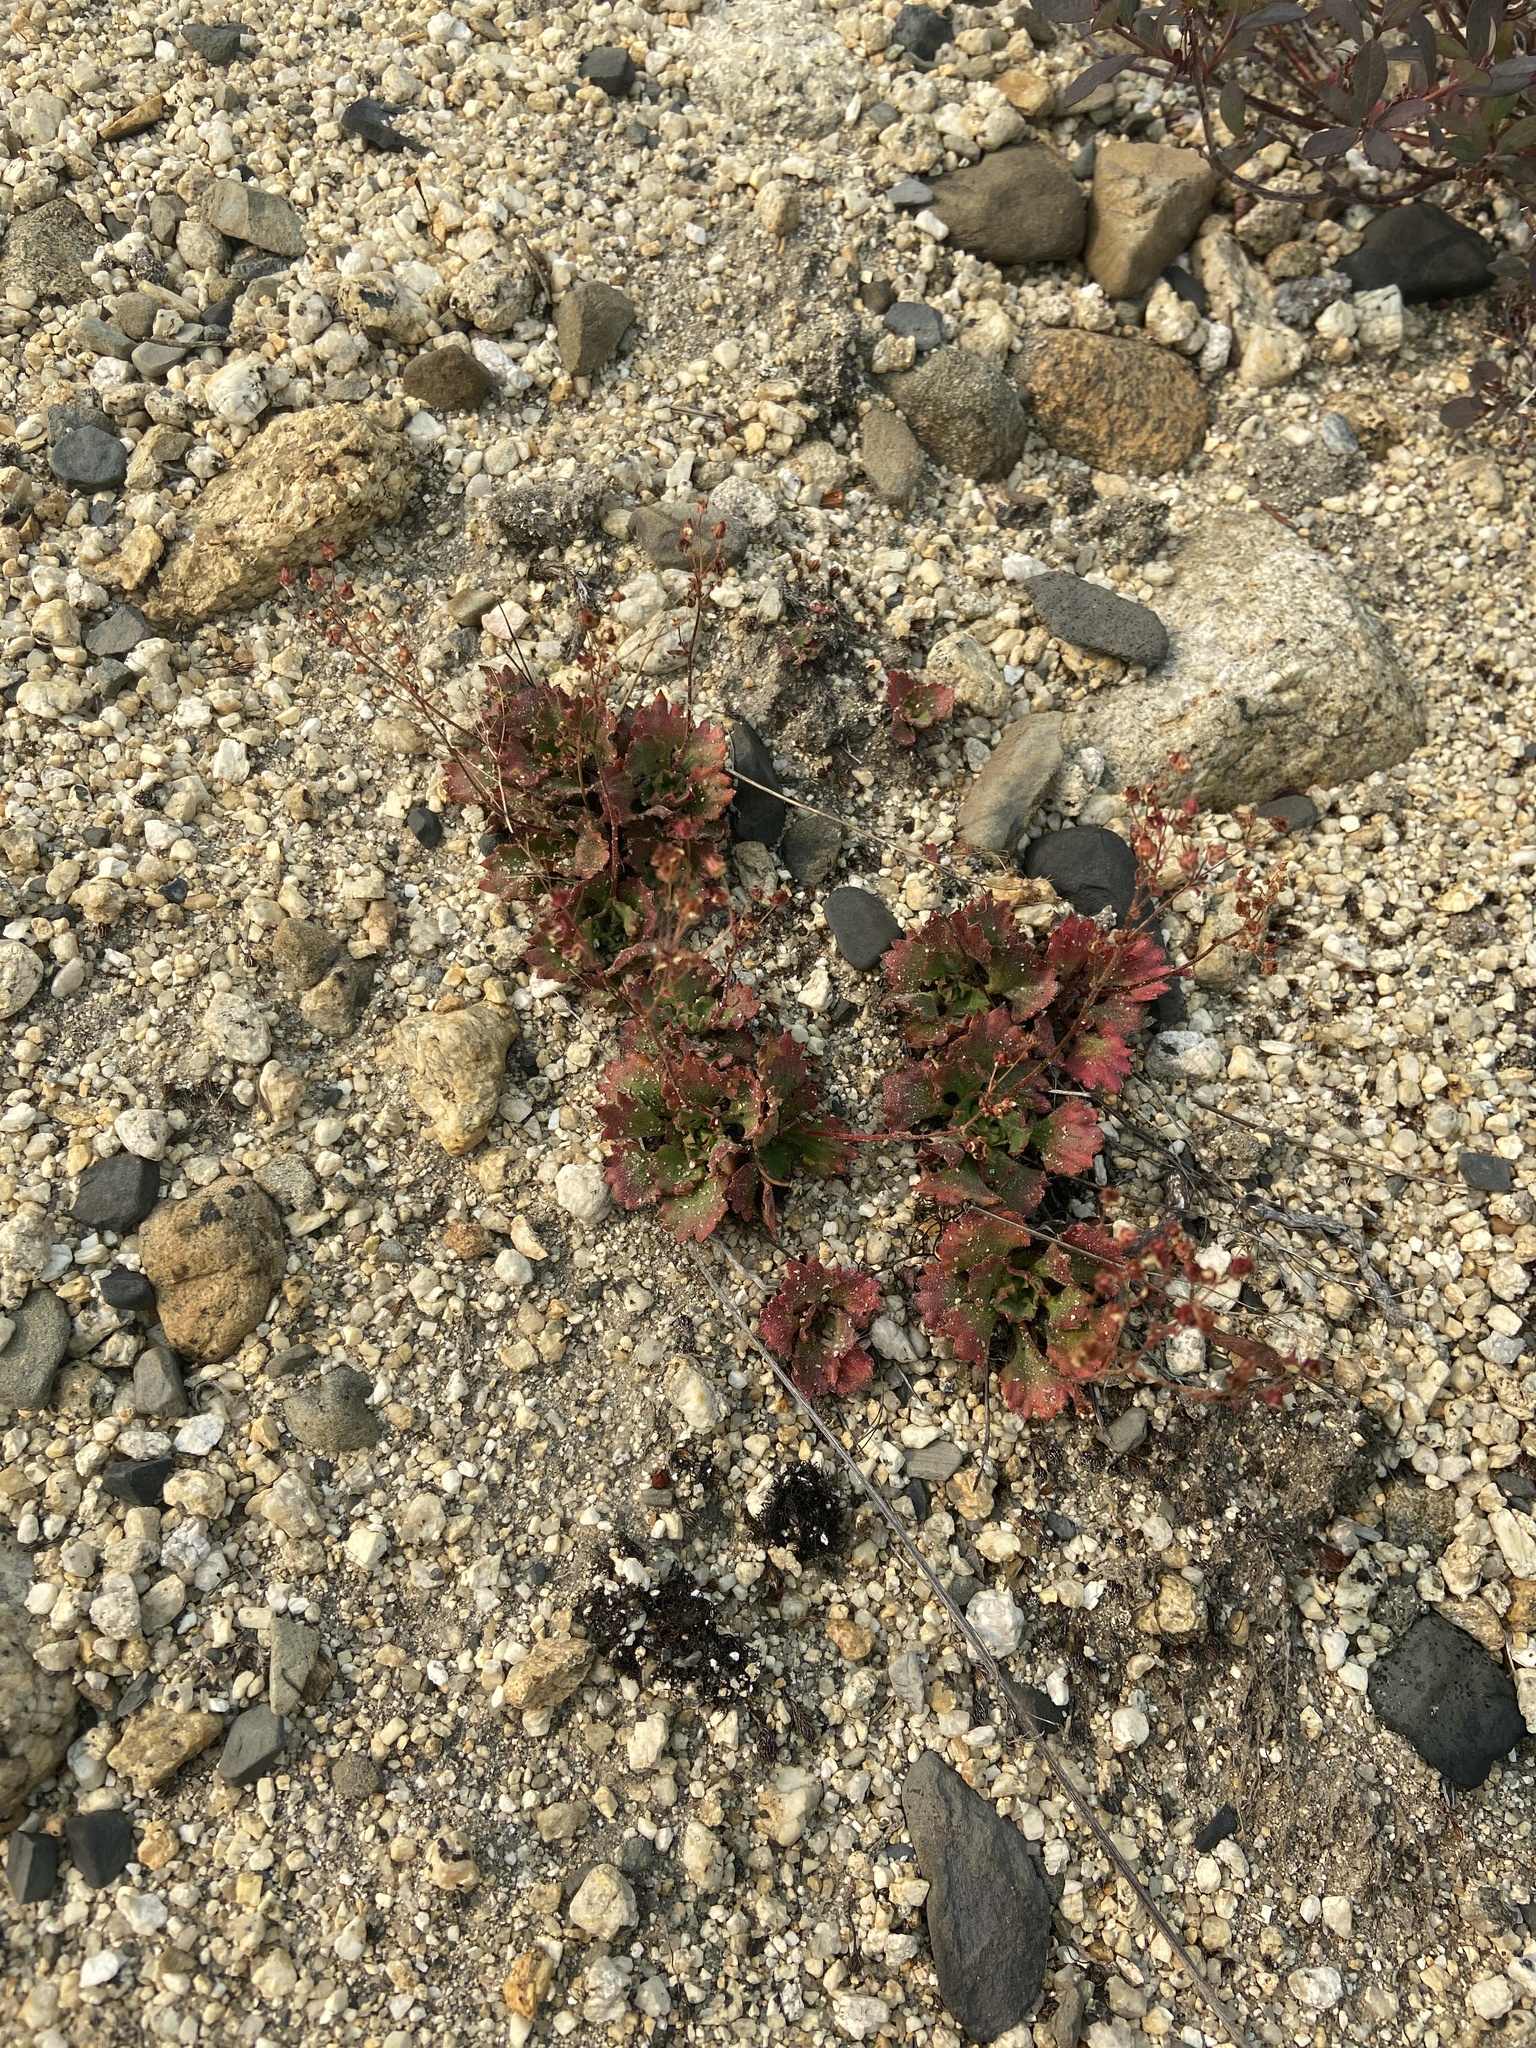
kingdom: Plantae
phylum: Tracheophyta
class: Magnoliopsida
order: Saxifragales
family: Saxifragaceae
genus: Micranthes
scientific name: Micranthes punctata
